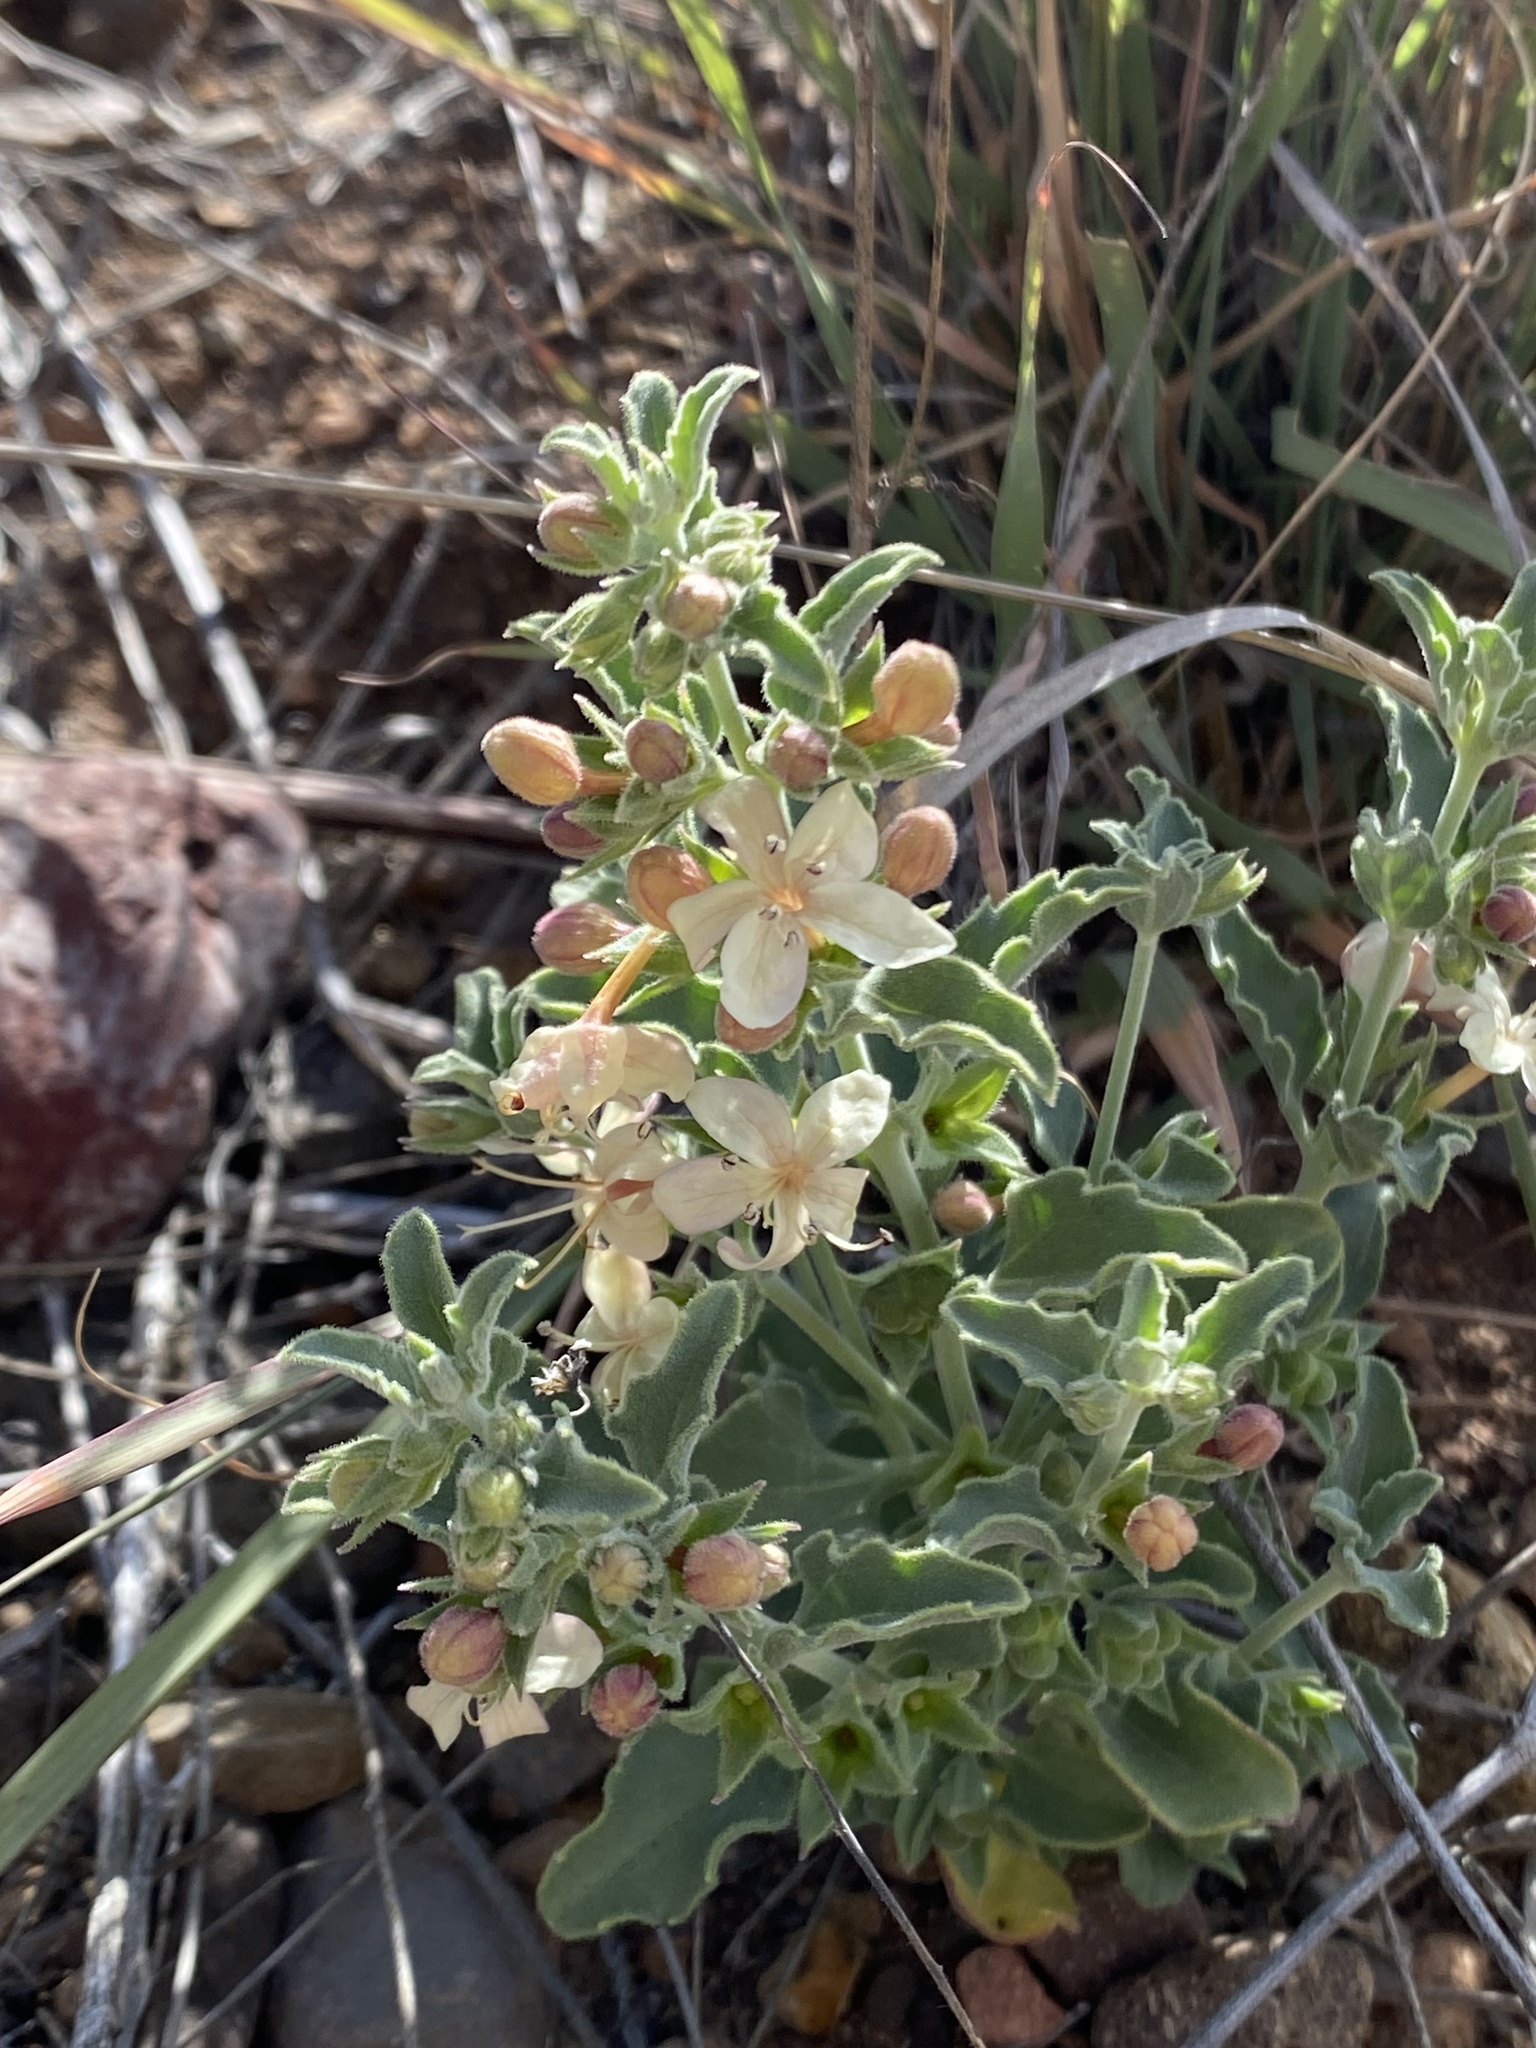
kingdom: Plantae
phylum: Tracheophyta
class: Magnoliopsida
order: Lamiales
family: Lamiaceae
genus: Tetraclea
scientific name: Tetraclea coulteri
